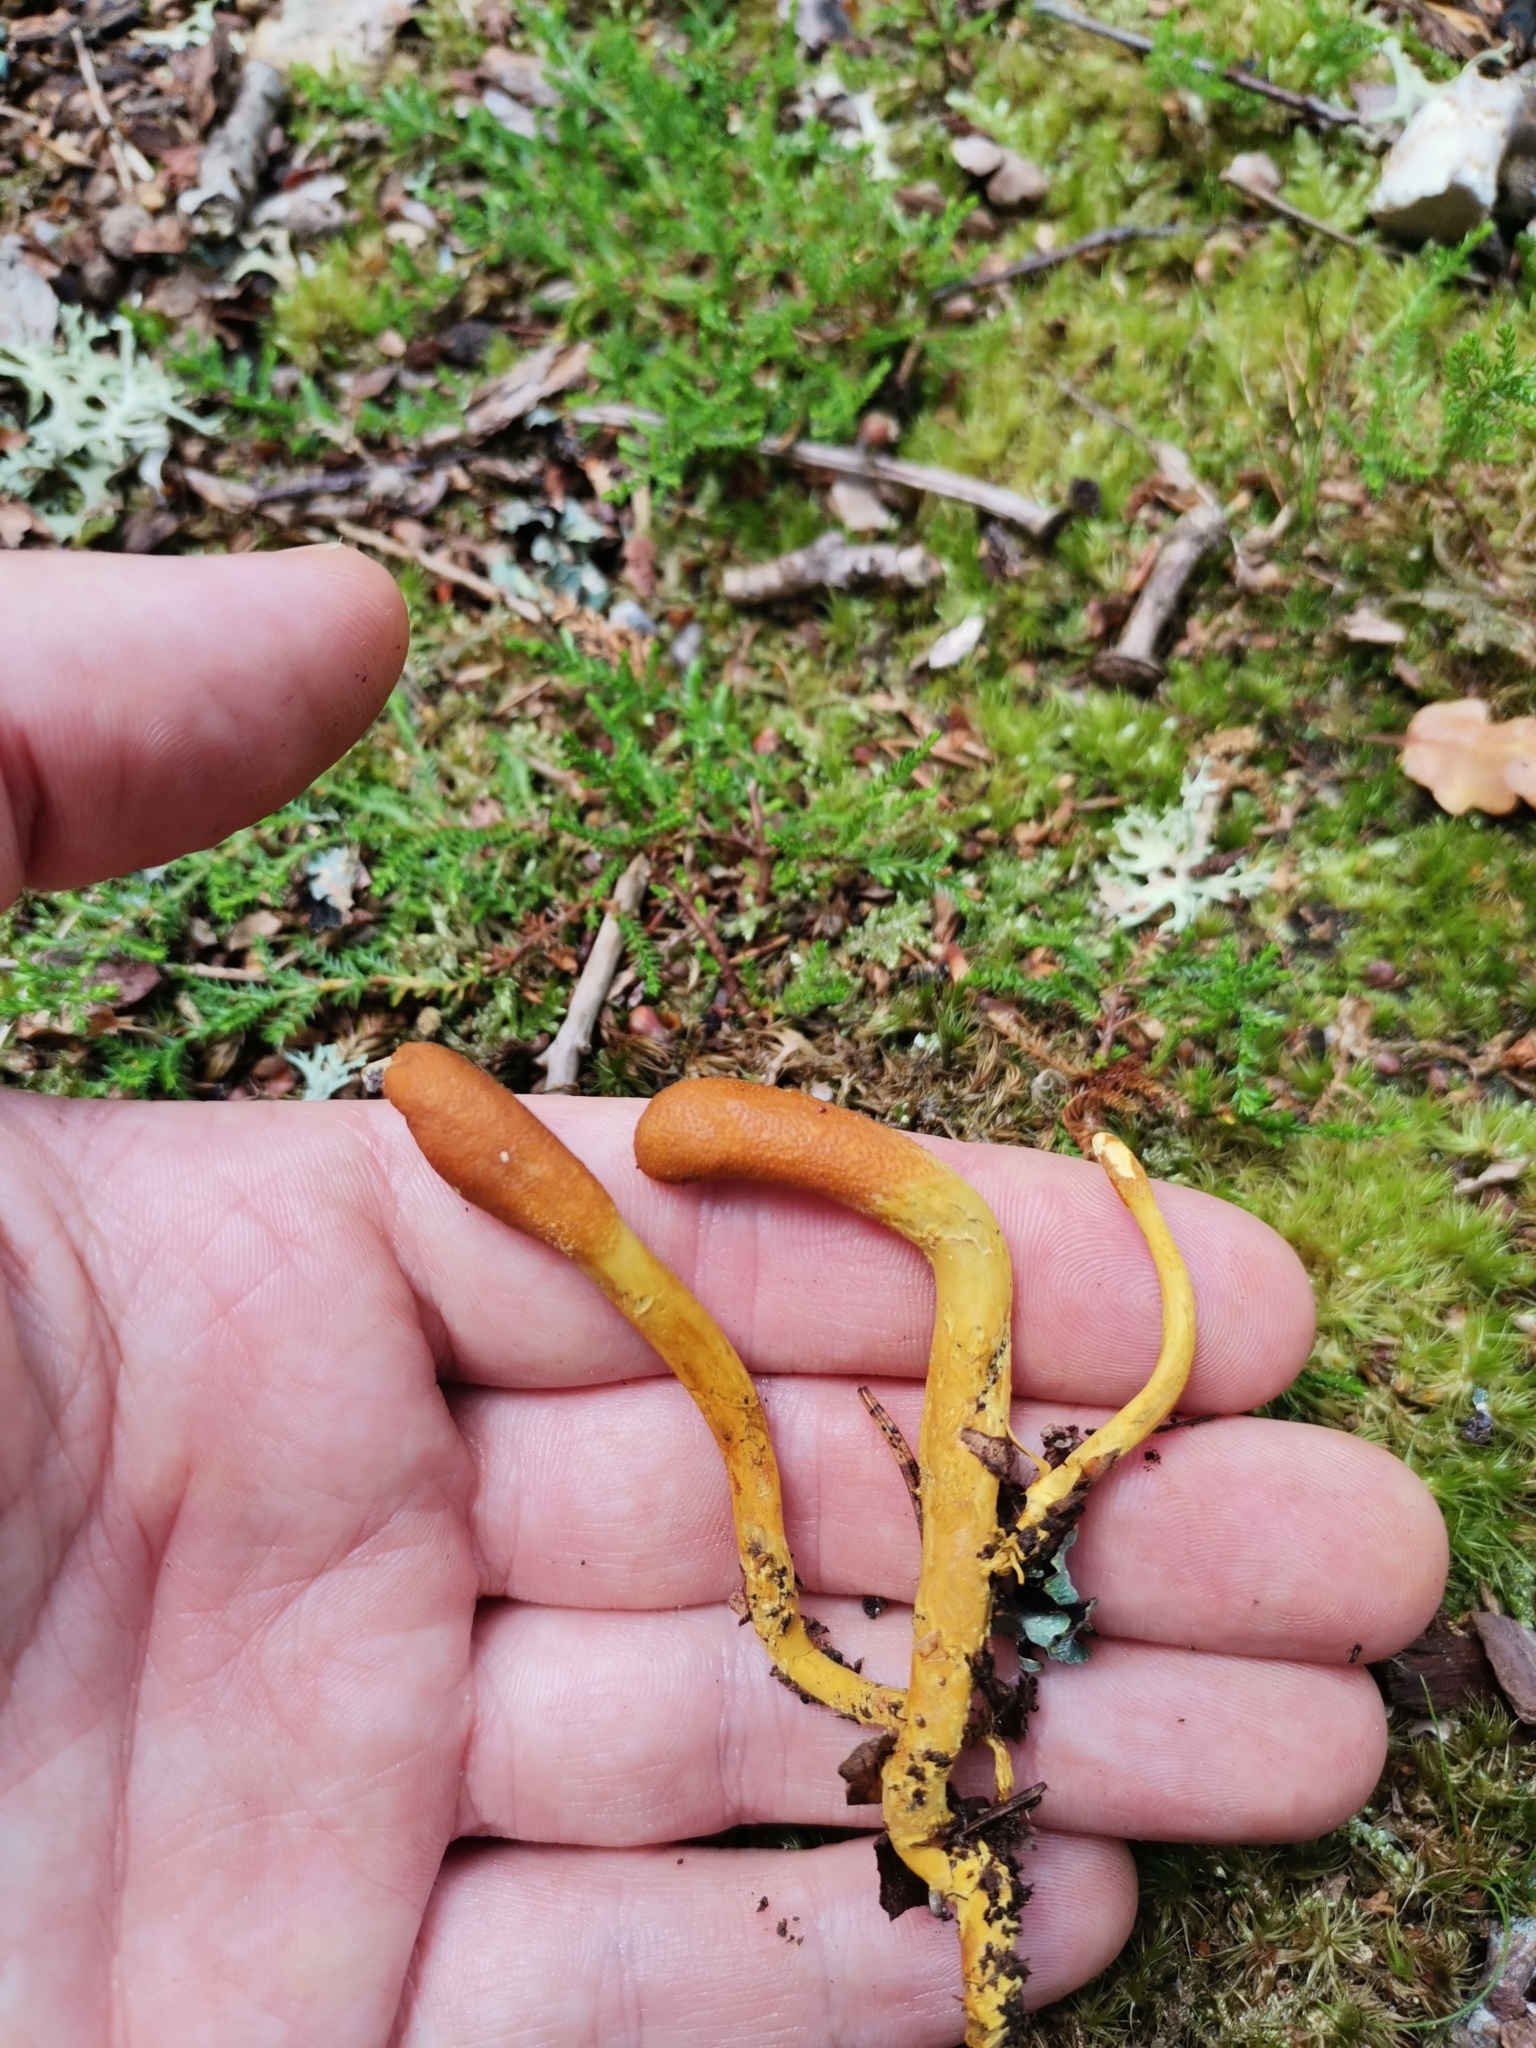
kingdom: Fungi
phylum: Ascomycota
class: Sordariomycetes
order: Hypocreales
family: Ophiocordycipitaceae
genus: Tolypocladium
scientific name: Tolypocladium ophioglossoides
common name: Snaketongue truffleclub
